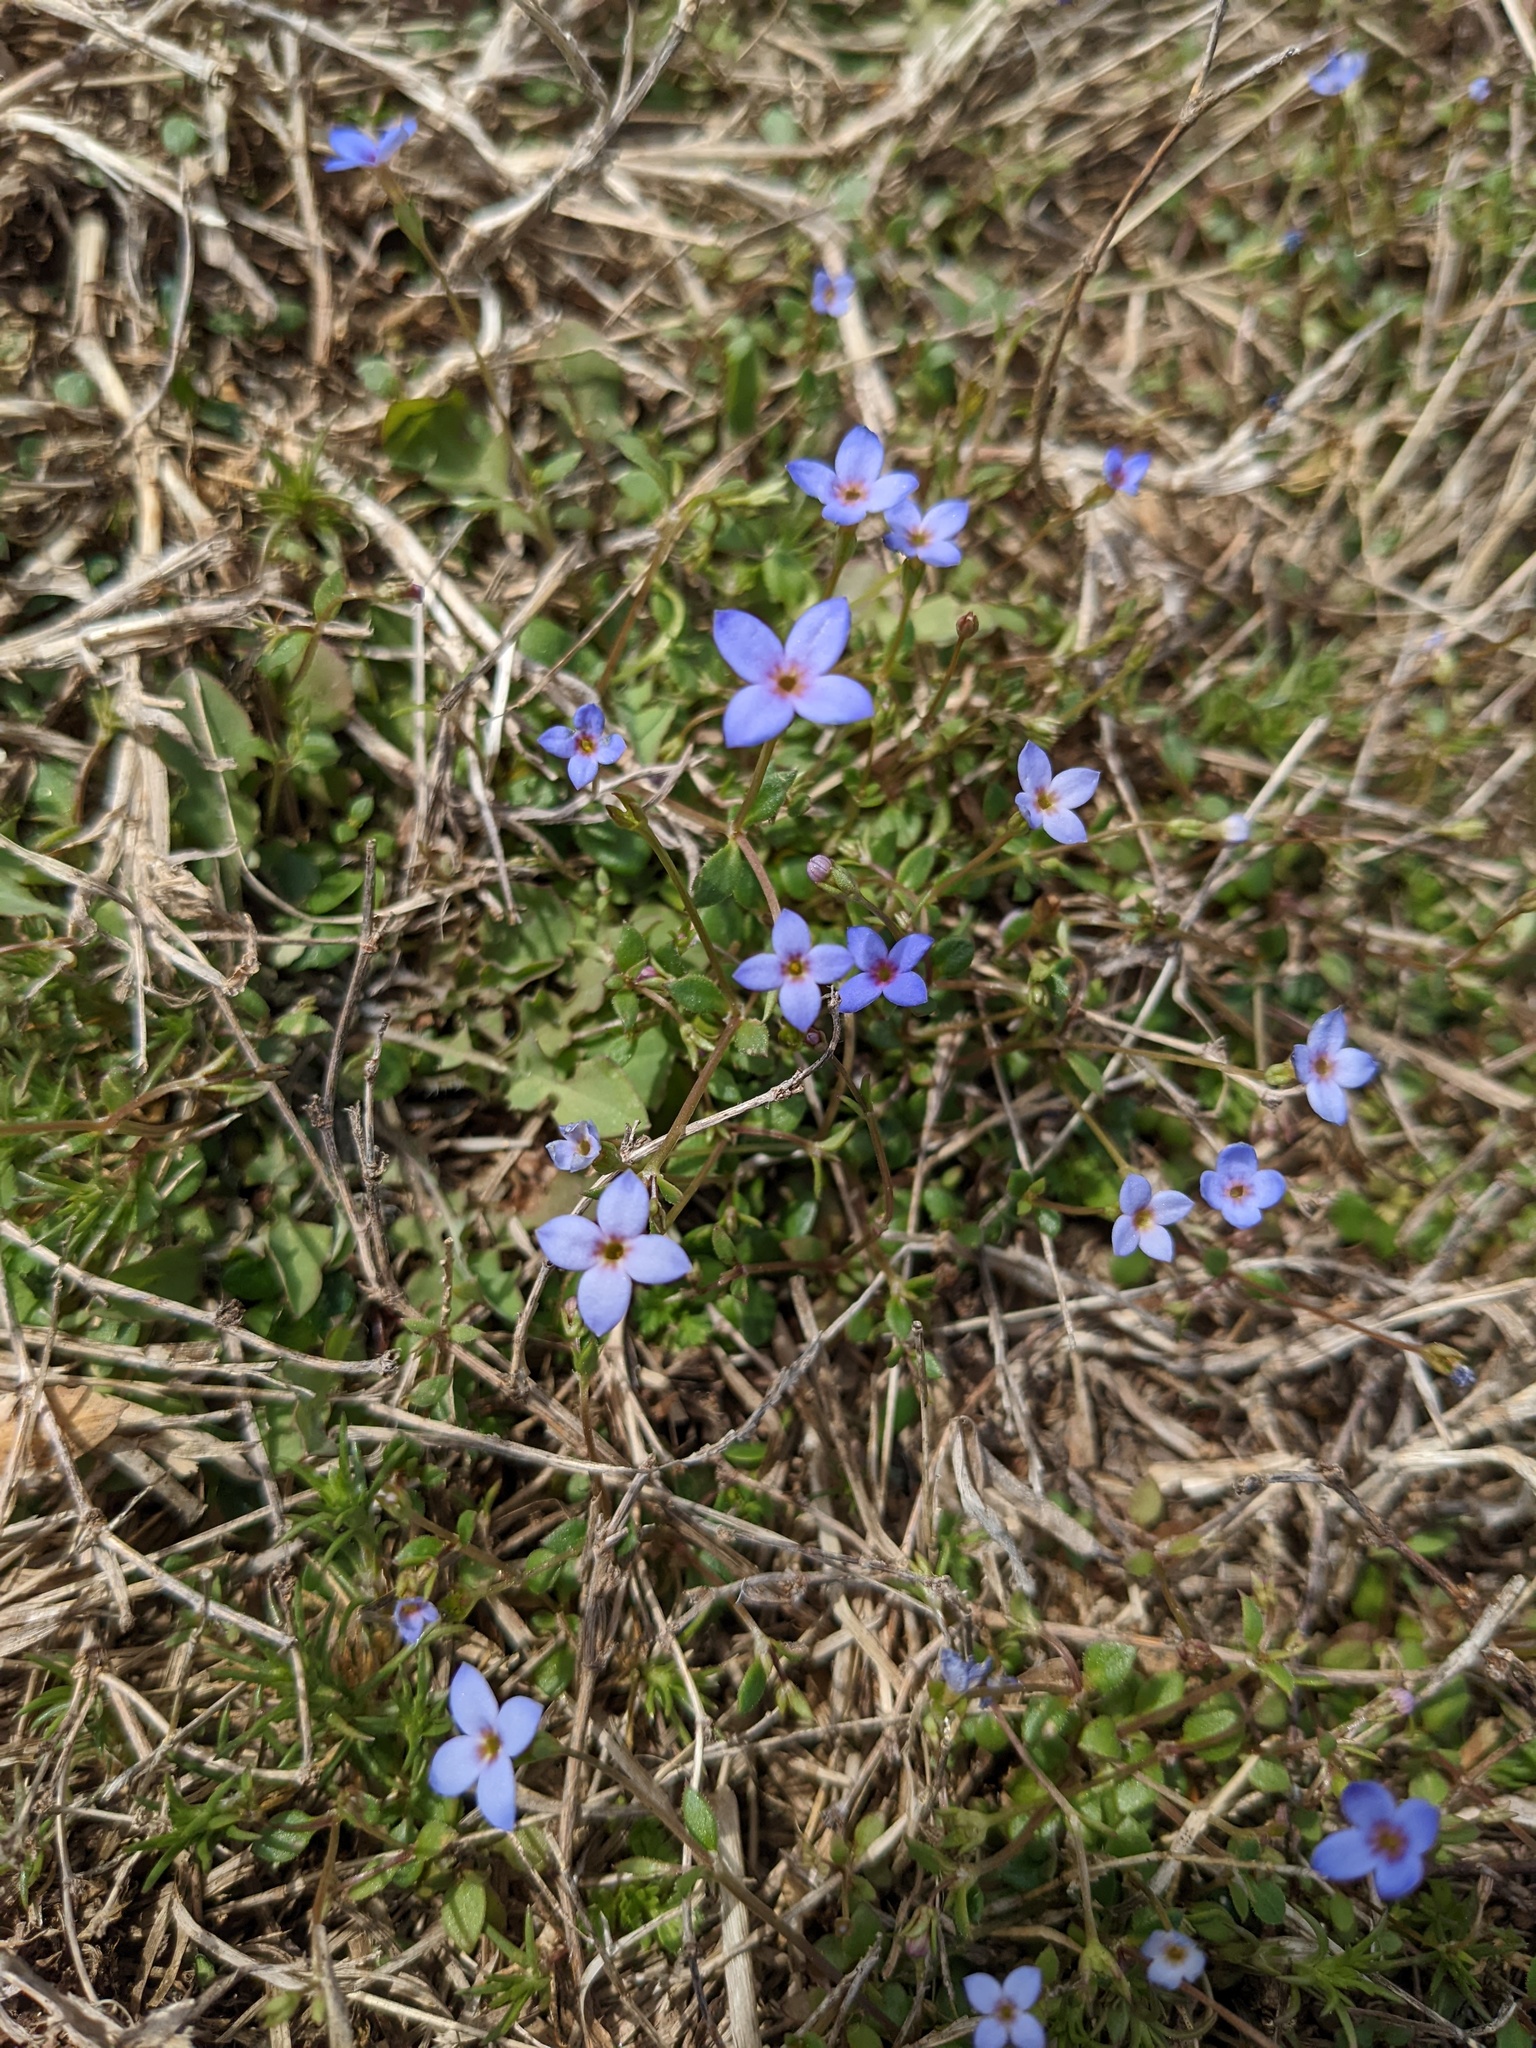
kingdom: Plantae
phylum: Tracheophyta
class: Magnoliopsida
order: Gentianales
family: Rubiaceae
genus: Houstonia
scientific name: Houstonia pusilla
